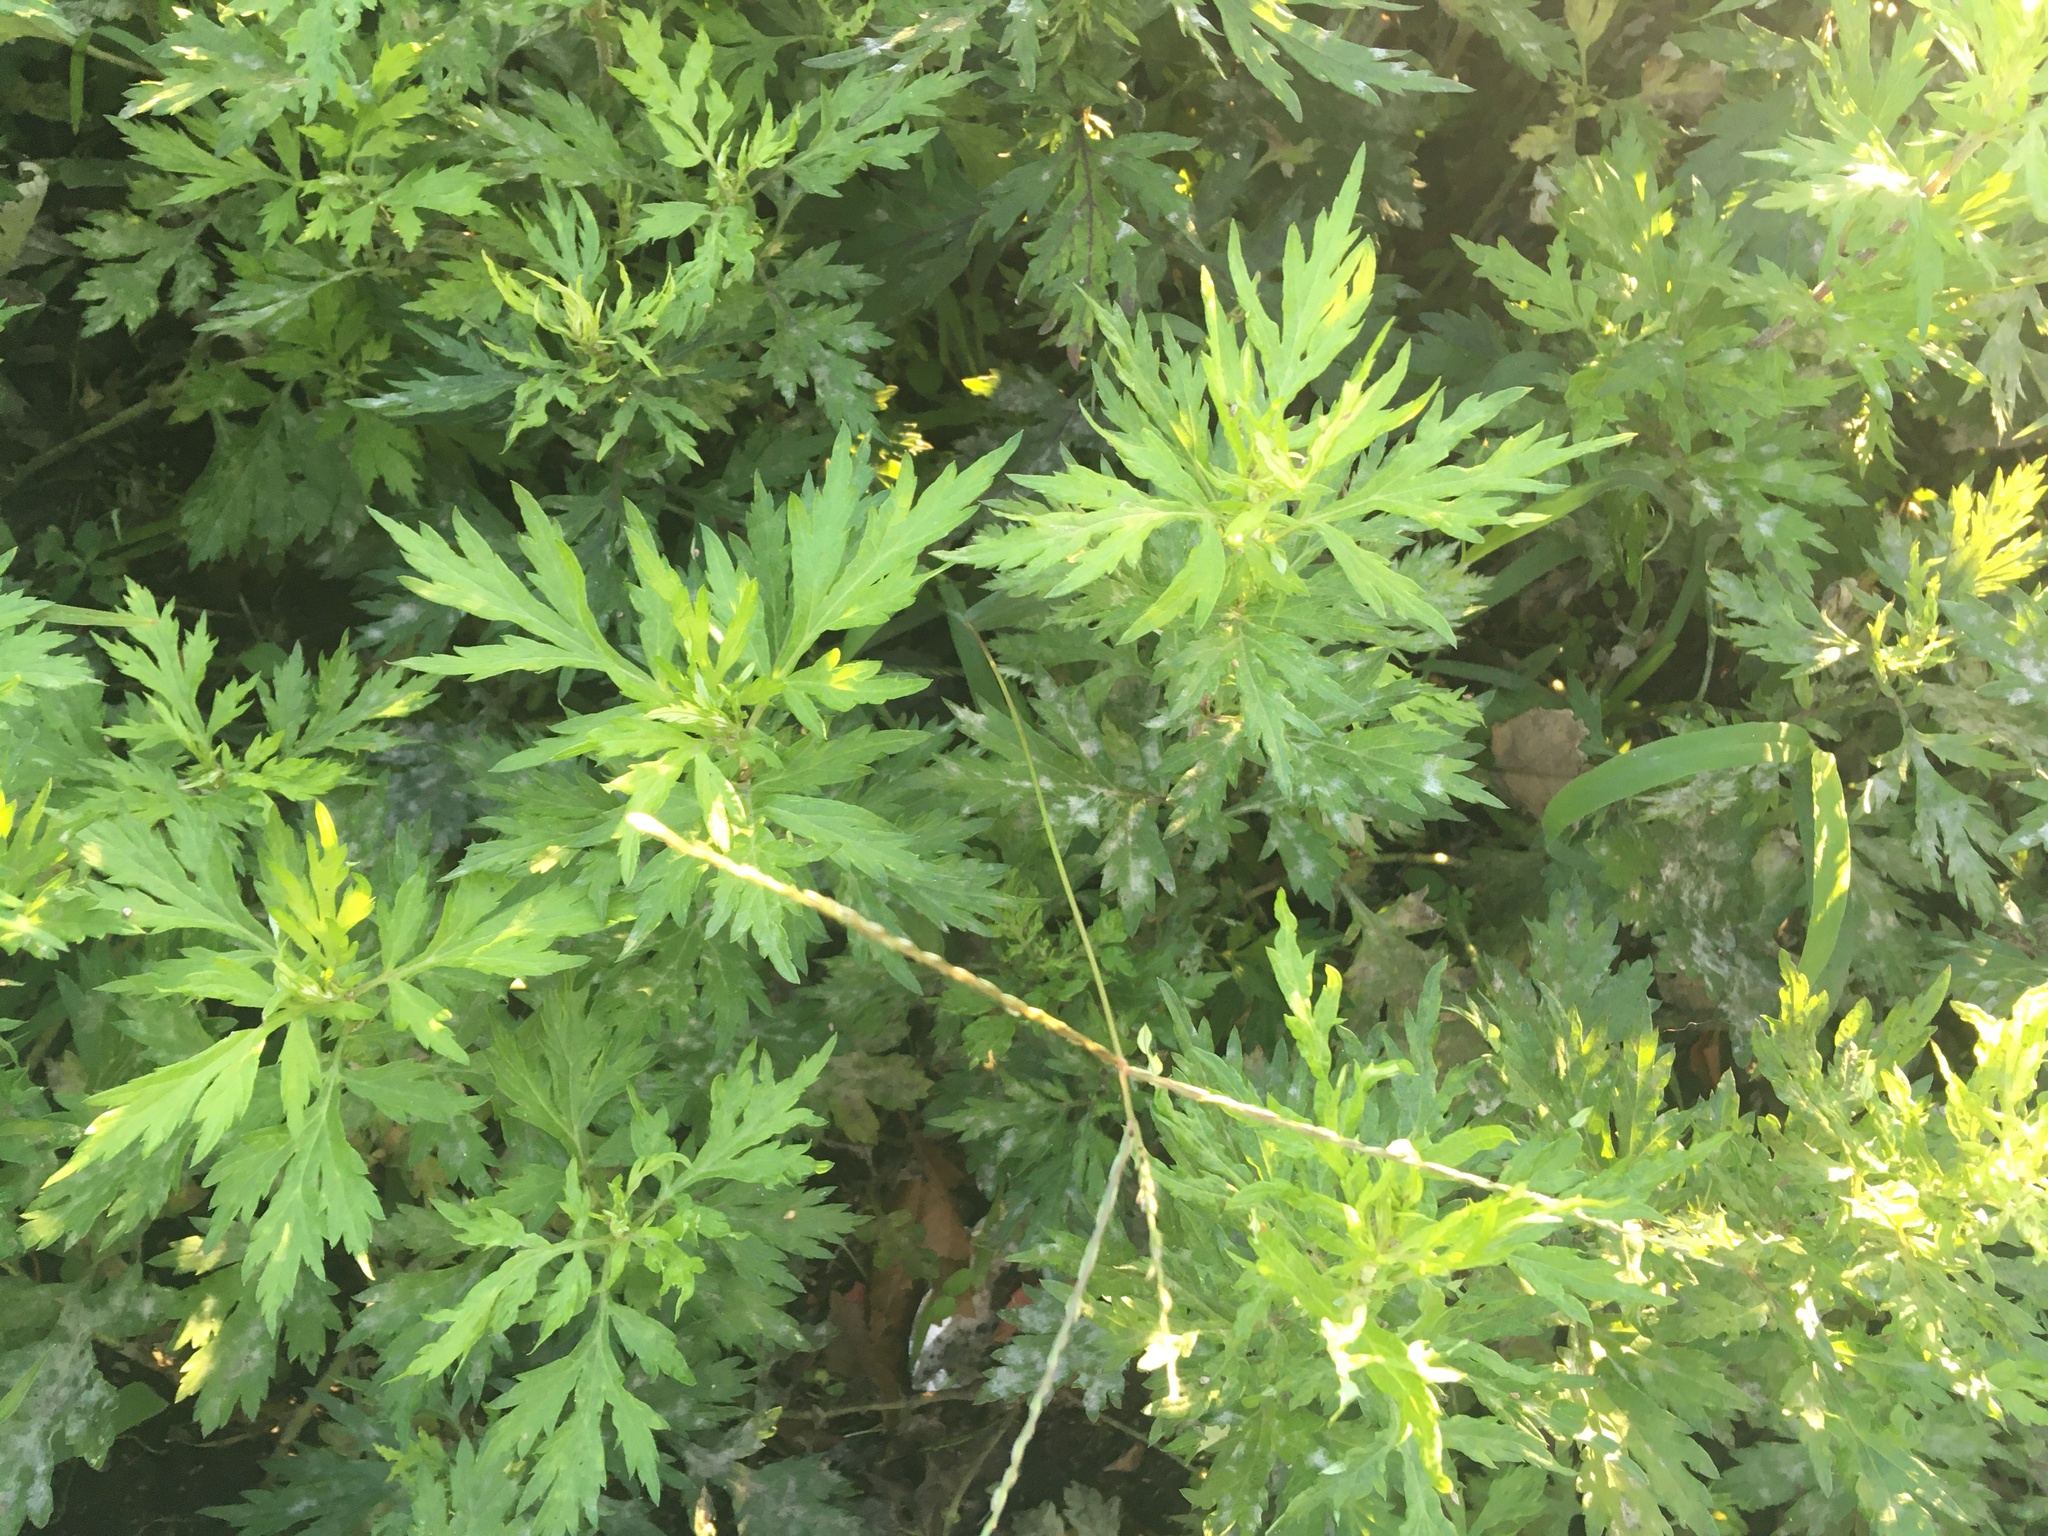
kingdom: Plantae
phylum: Tracheophyta
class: Magnoliopsida
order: Asterales
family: Asteraceae
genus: Artemisia
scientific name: Artemisia vulgaris
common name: Mugwort
